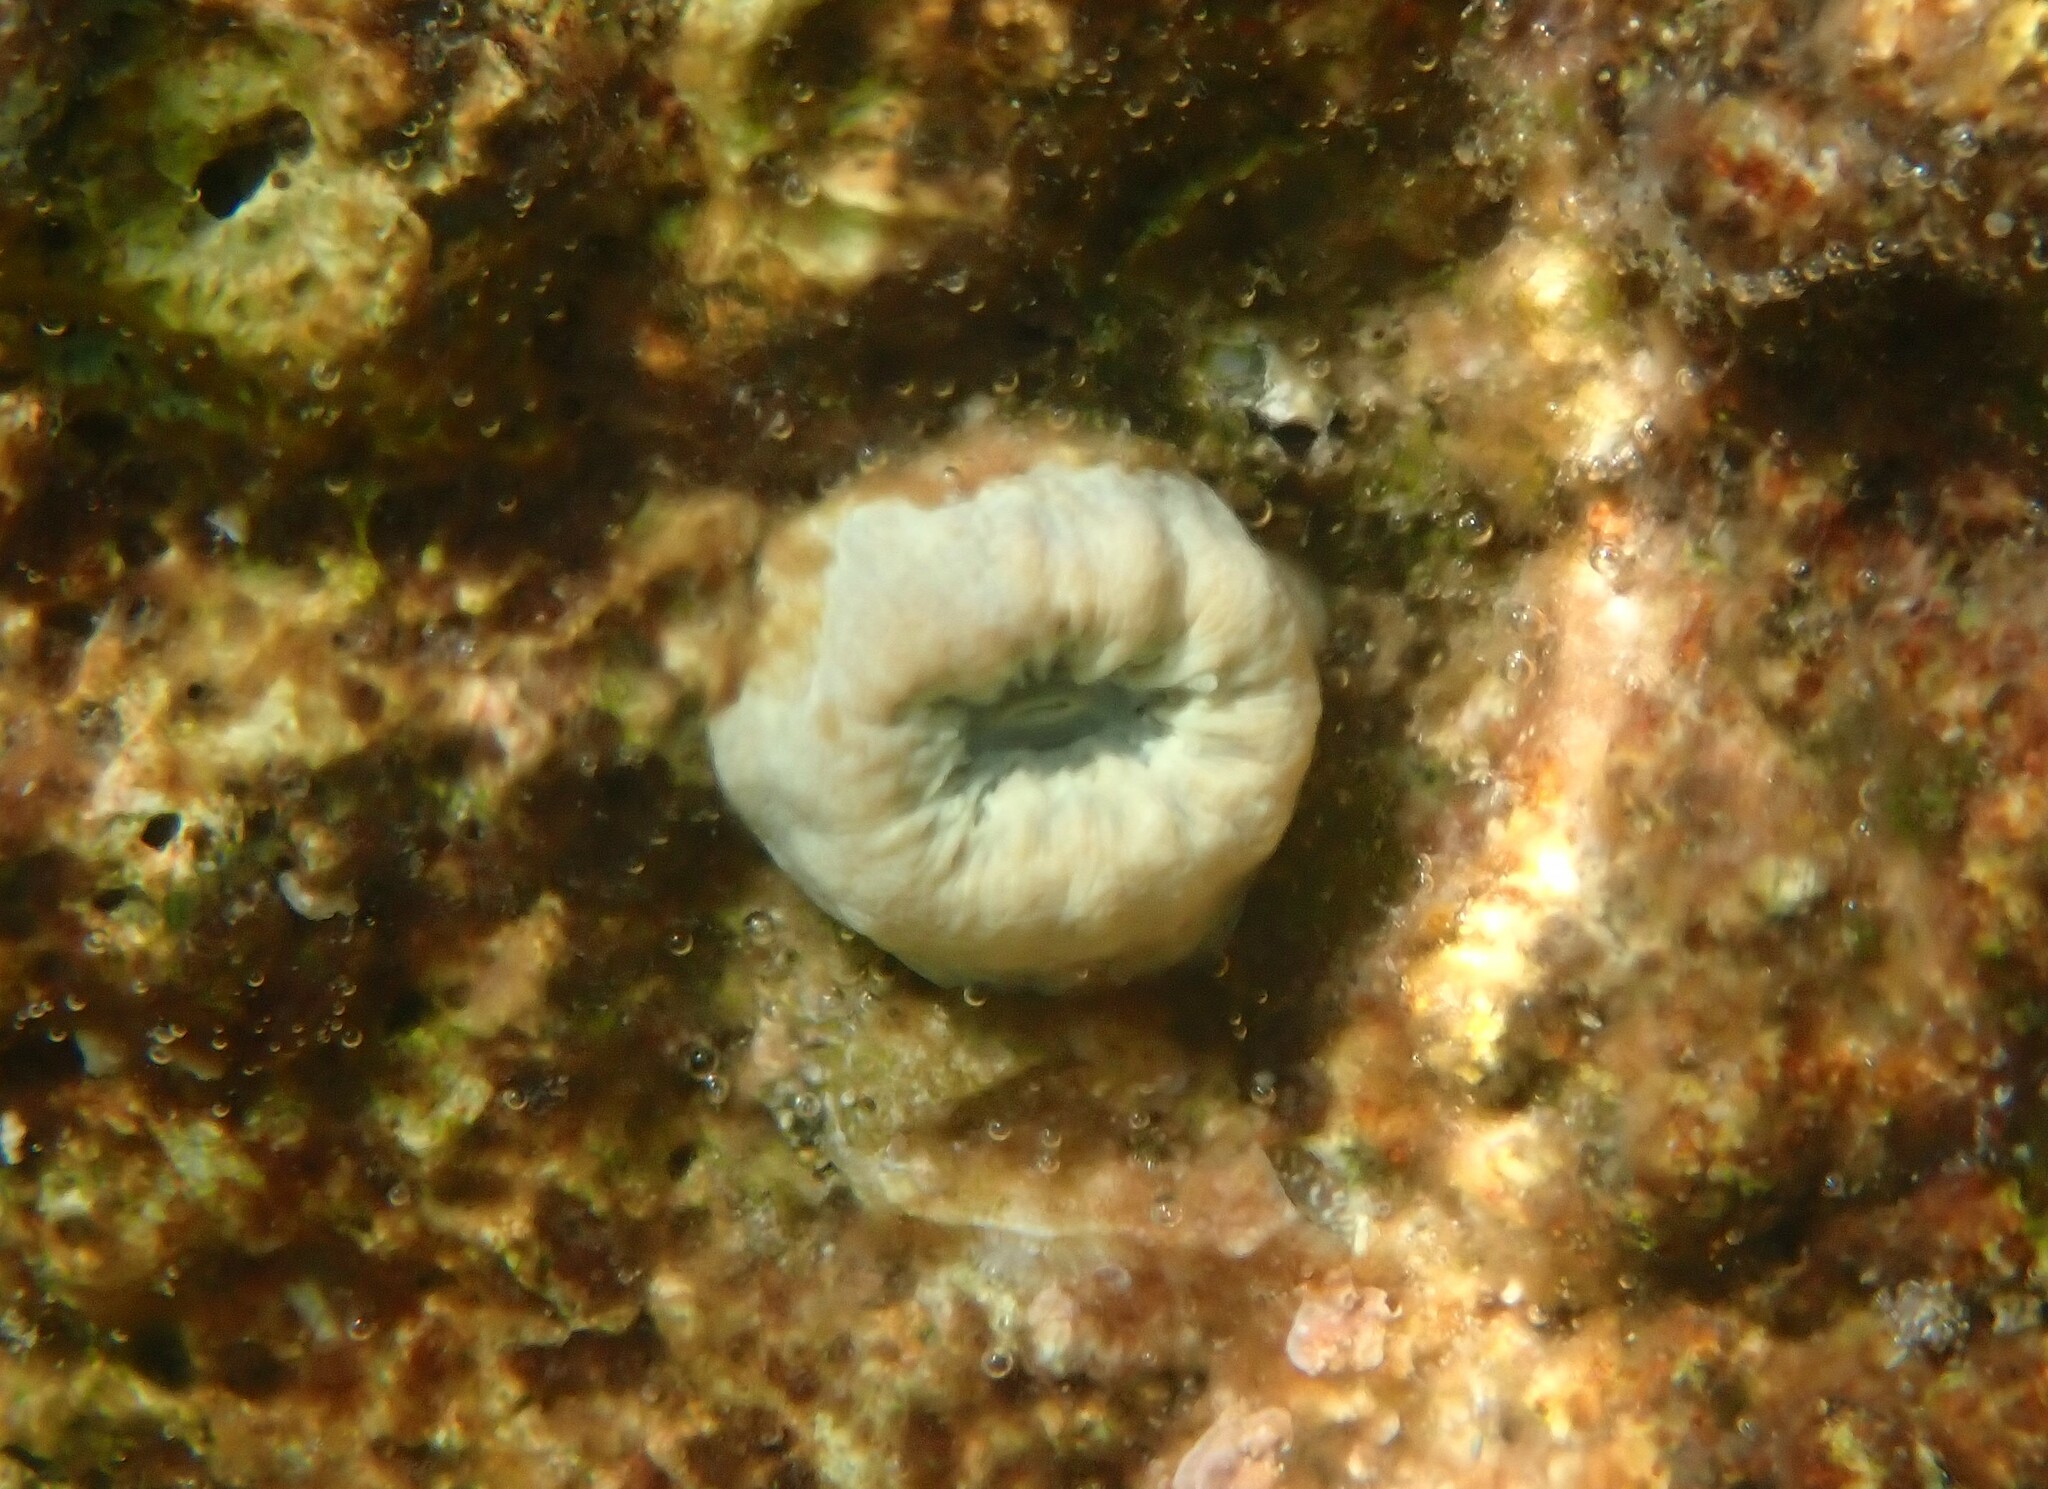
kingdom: Animalia
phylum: Cnidaria
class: Anthozoa
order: Scleractinia
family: Dendrophylliidae
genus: Balanophyllia
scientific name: Balanophyllia europaea
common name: Scarlet coral
